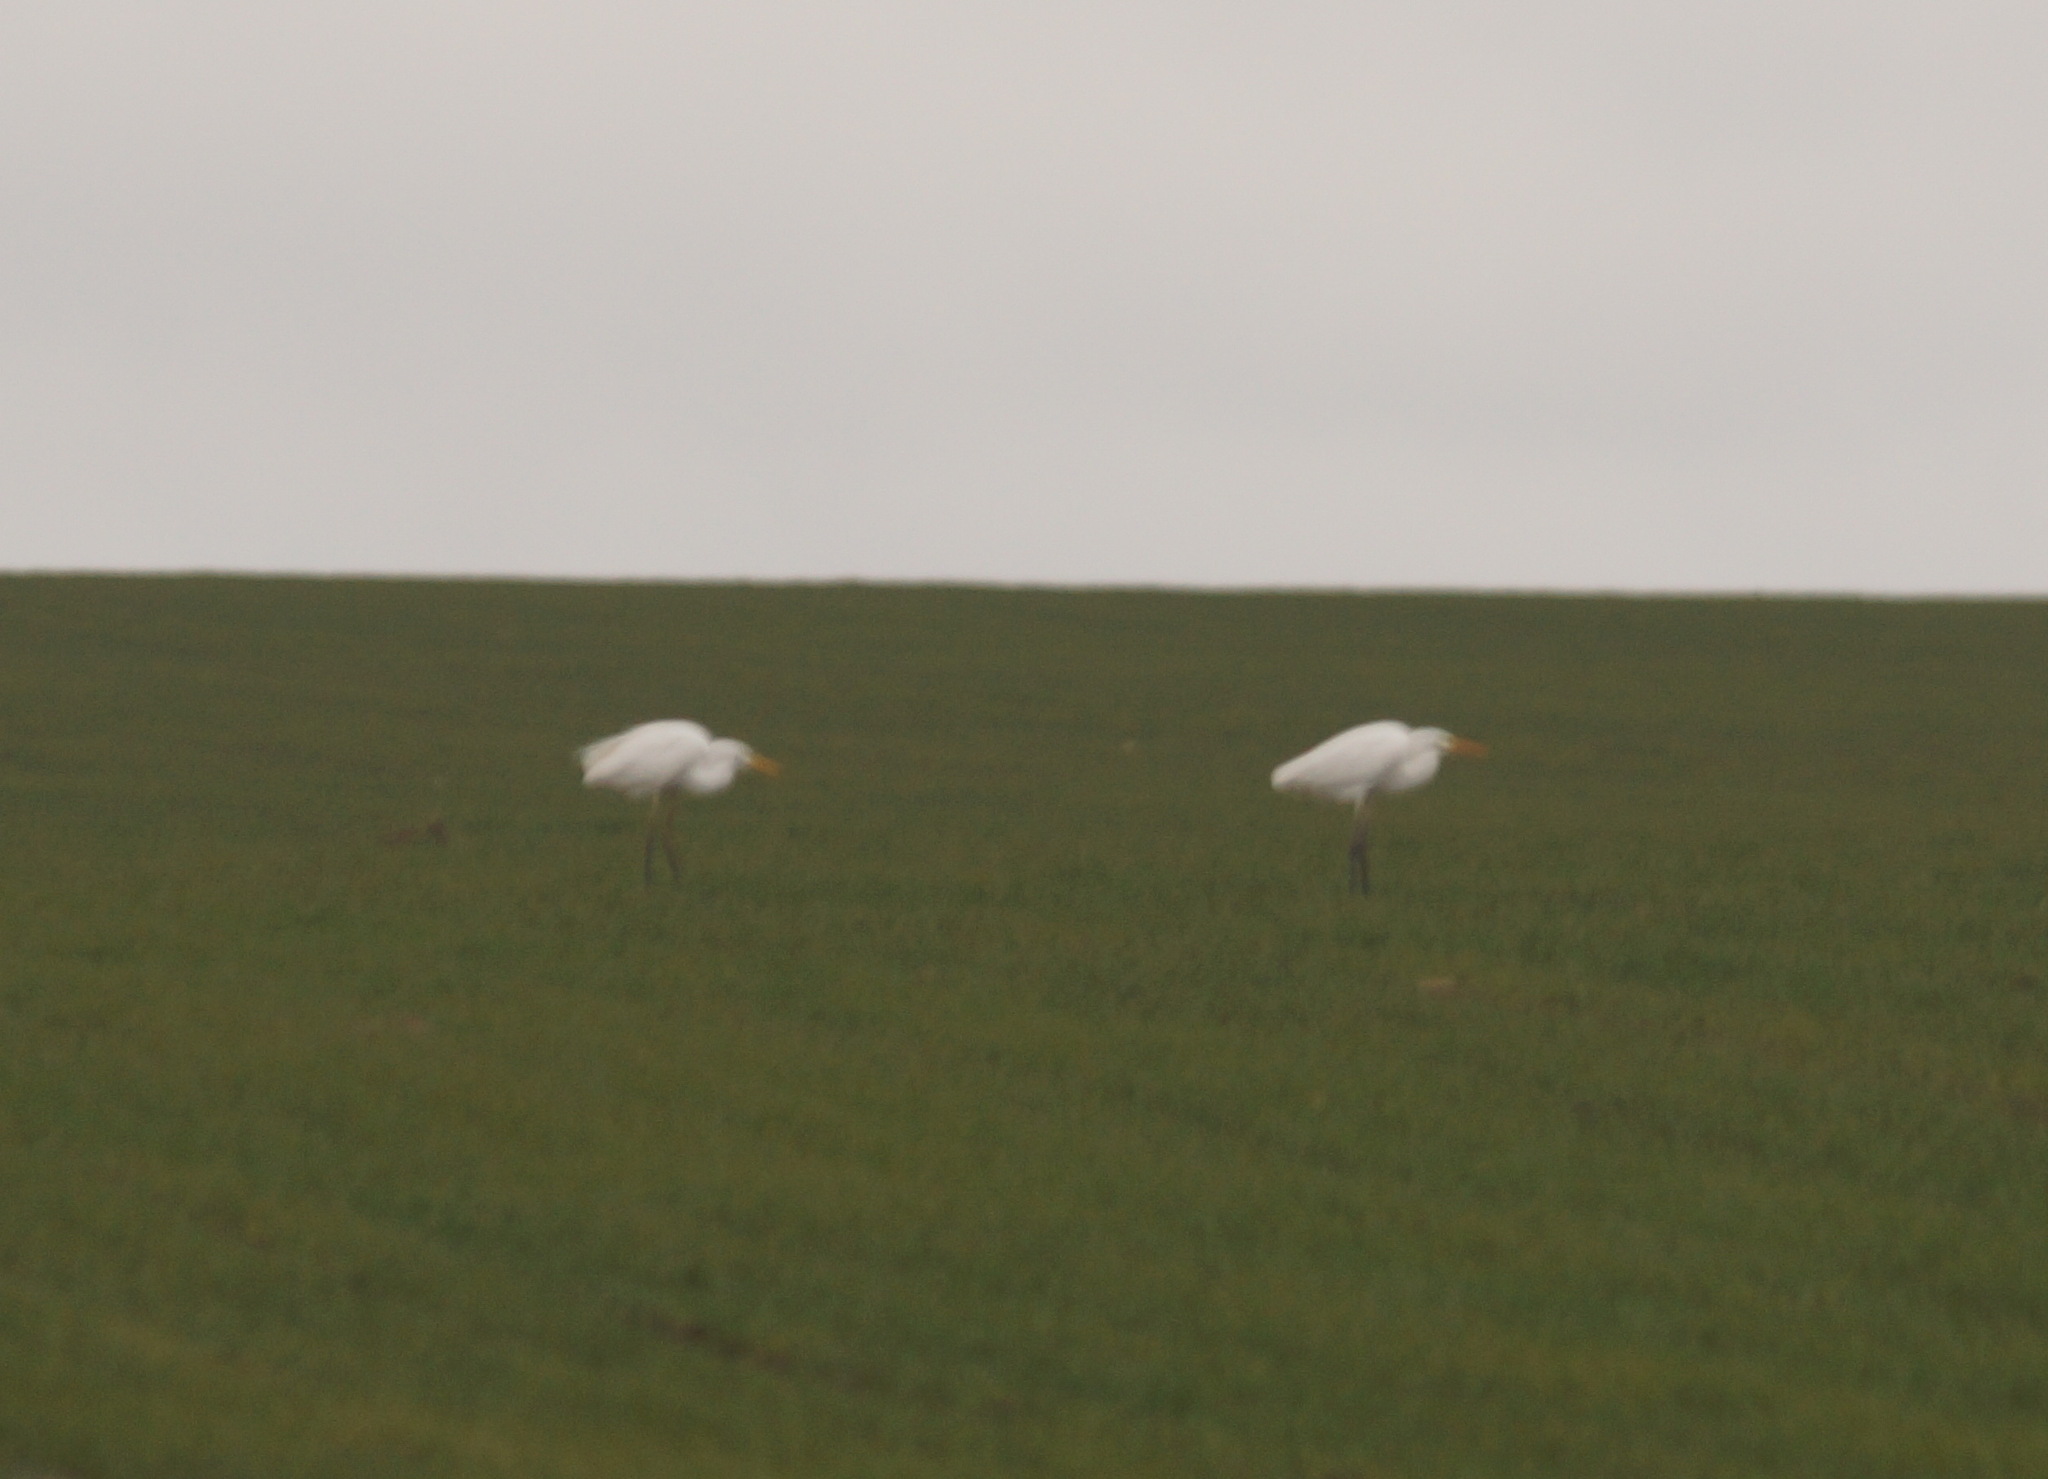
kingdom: Animalia
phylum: Chordata
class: Aves
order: Pelecaniformes
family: Ardeidae
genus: Ardea
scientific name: Ardea alba
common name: Great egret
